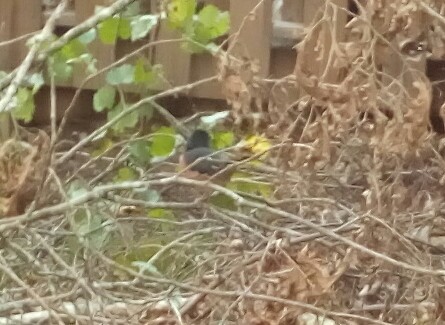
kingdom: Animalia
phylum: Chordata
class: Aves
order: Passeriformes
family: Passerellidae
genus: Pipilo
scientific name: Pipilo erythrophthalmus
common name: Eastern towhee
